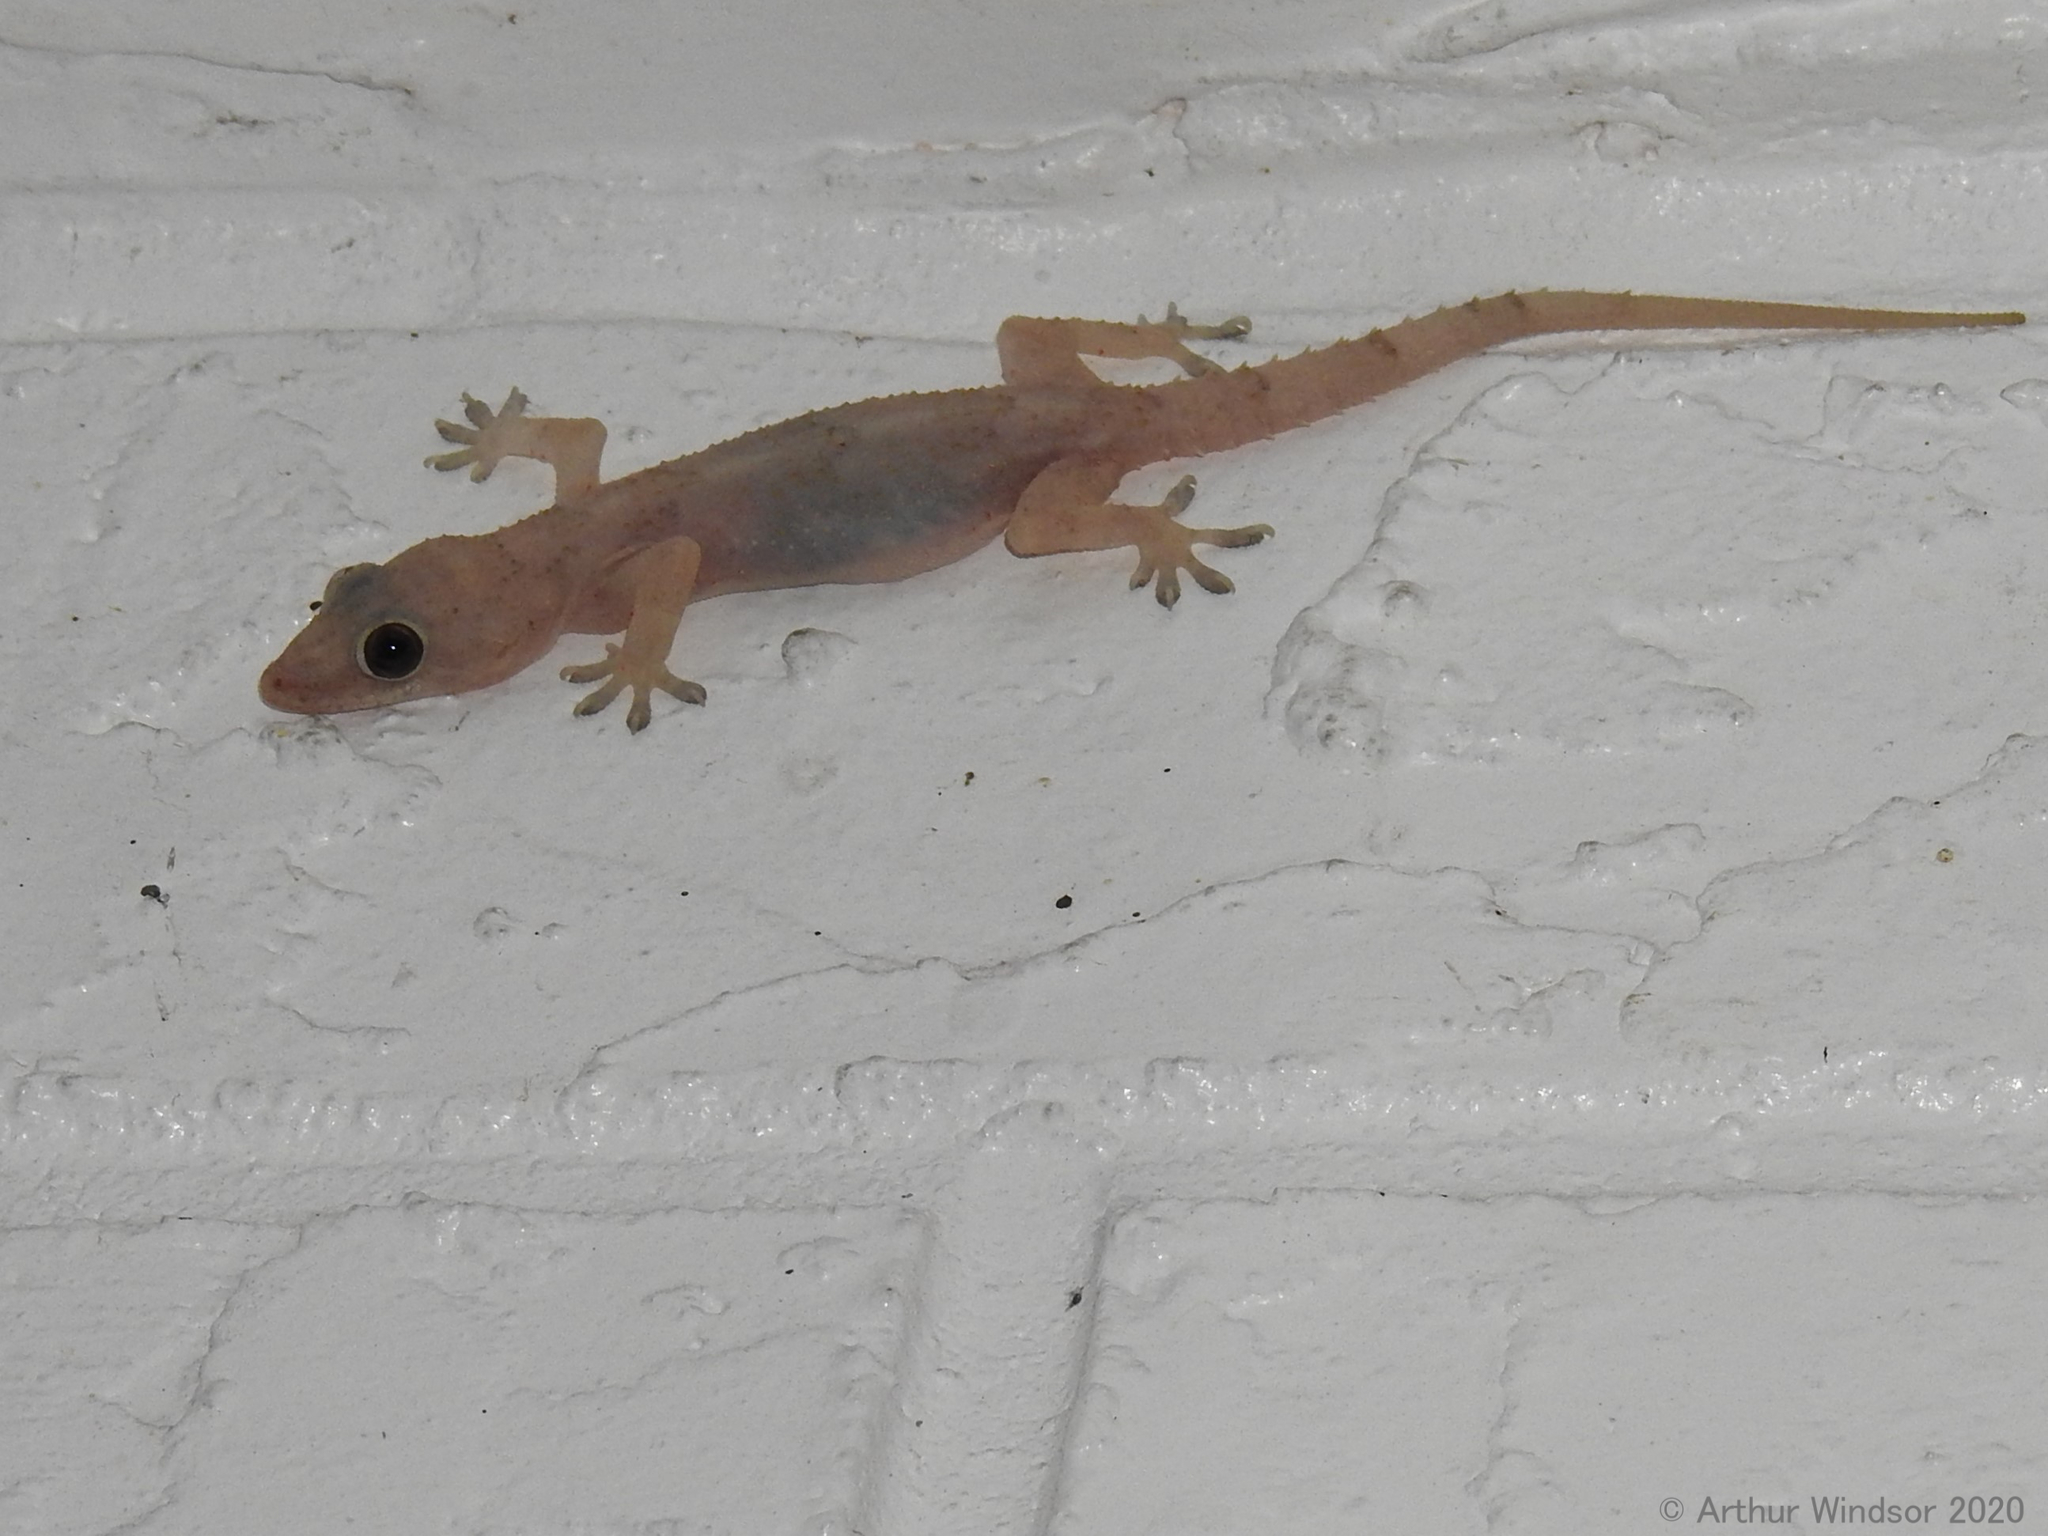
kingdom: Animalia
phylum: Chordata
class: Squamata
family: Gekkonidae
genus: Hemidactylus
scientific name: Hemidactylus mabouia
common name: House gecko
